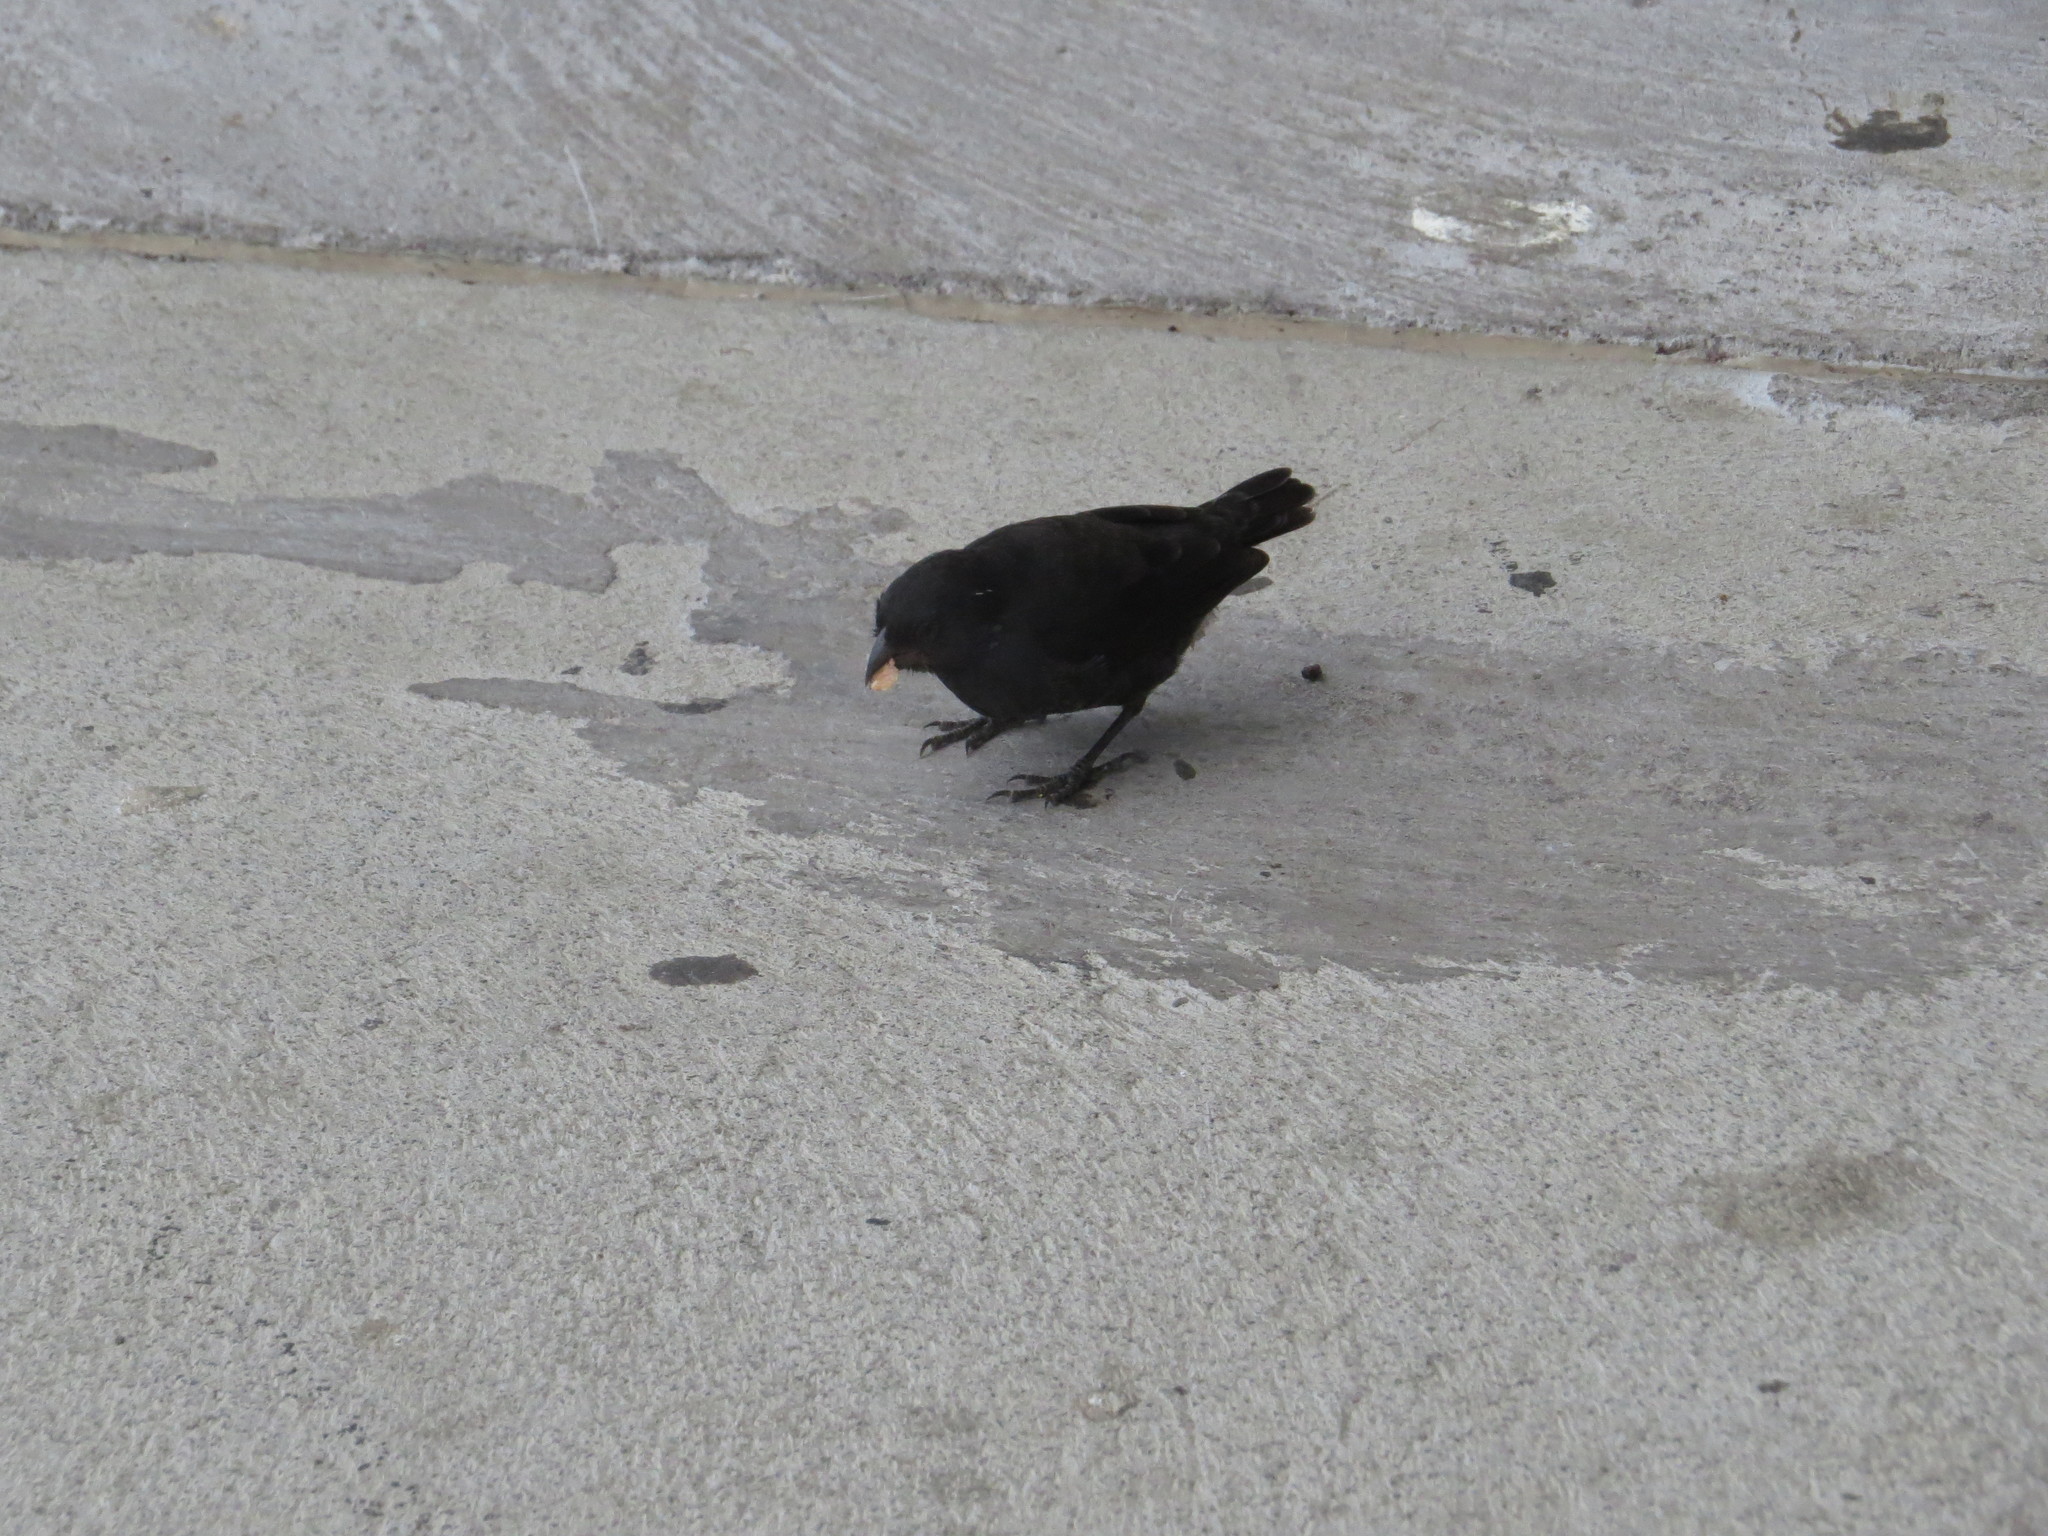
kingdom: Animalia
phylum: Chordata
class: Aves
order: Passeriformes
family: Thraupidae
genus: Geospiza
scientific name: Geospiza fuliginosa
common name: Small ground finch
